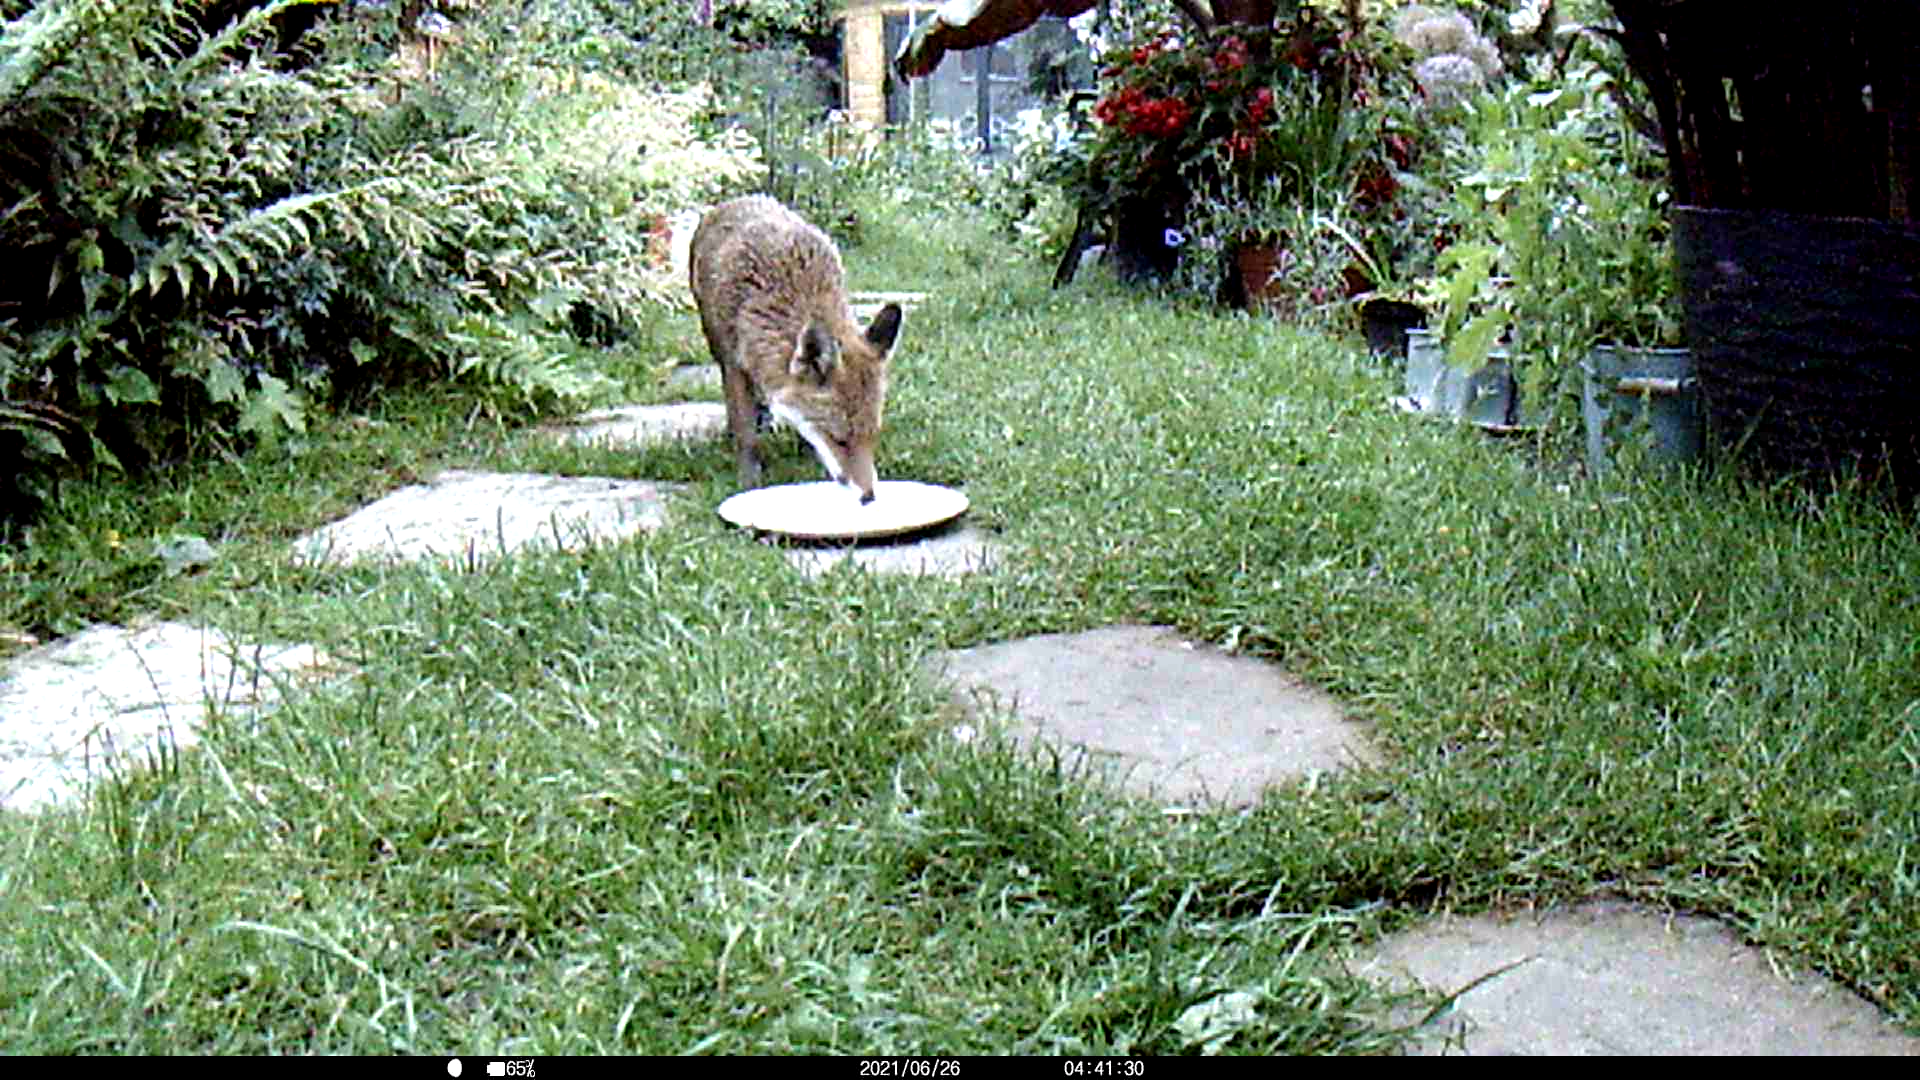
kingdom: Animalia
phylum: Chordata
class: Mammalia
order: Carnivora
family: Canidae
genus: Vulpes
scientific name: Vulpes vulpes
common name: Red fox
